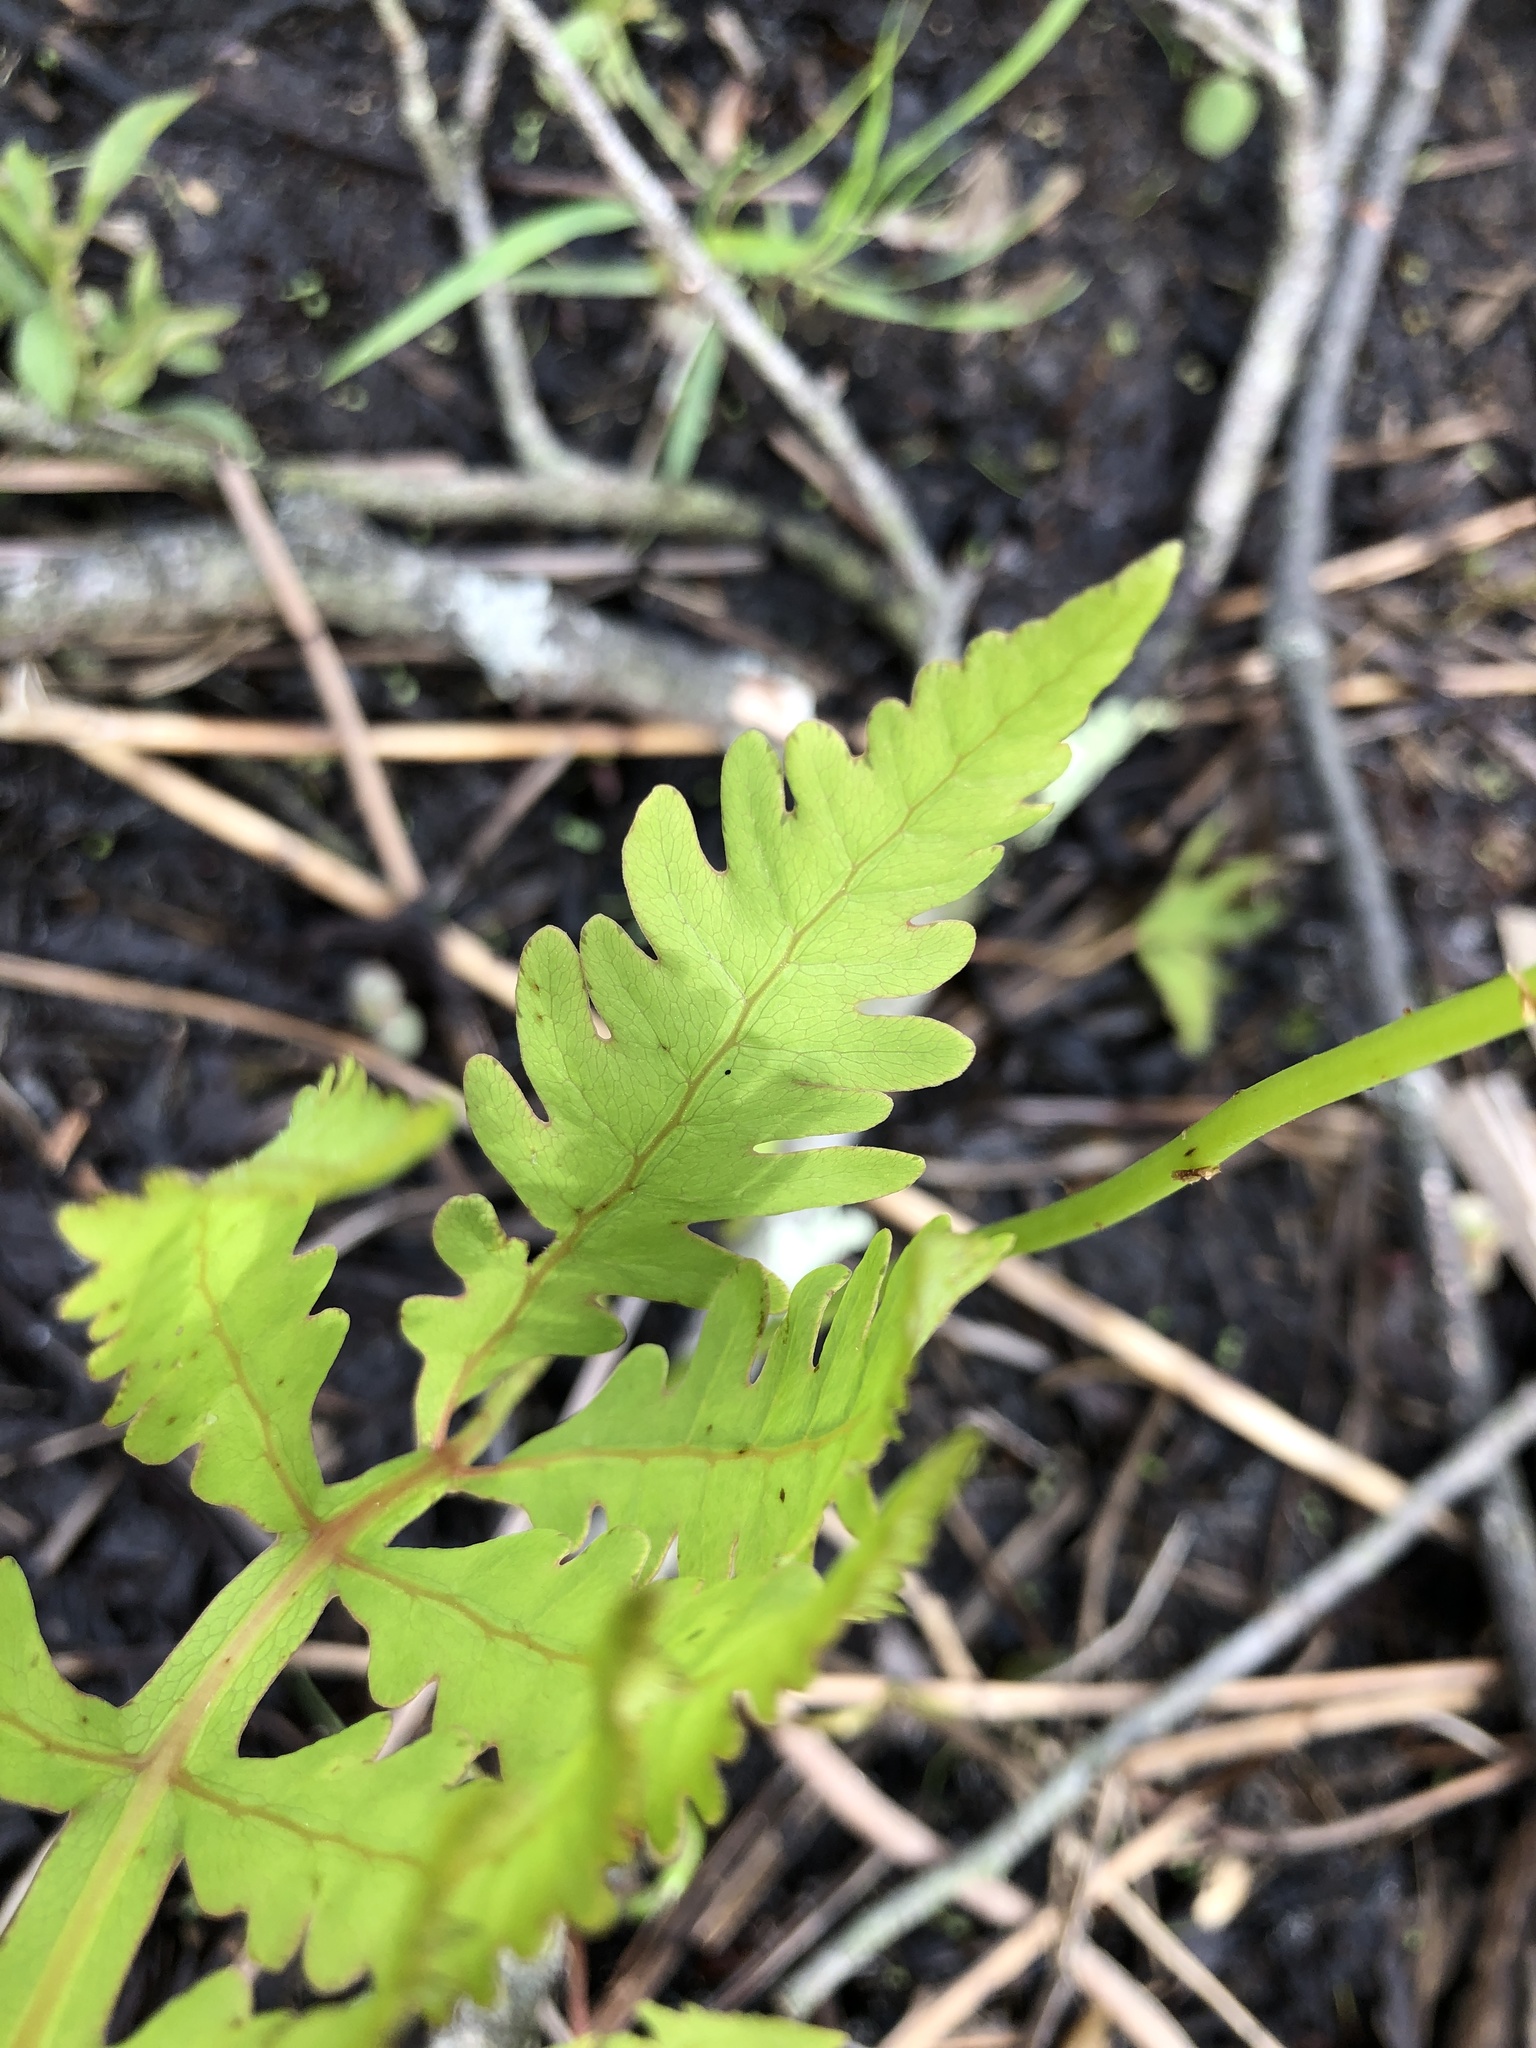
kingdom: Plantae
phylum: Tracheophyta
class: Polypodiopsida
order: Polypodiales
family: Onocleaceae
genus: Onoclea
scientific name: Onoclea sensibilis
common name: Sensitive fern
